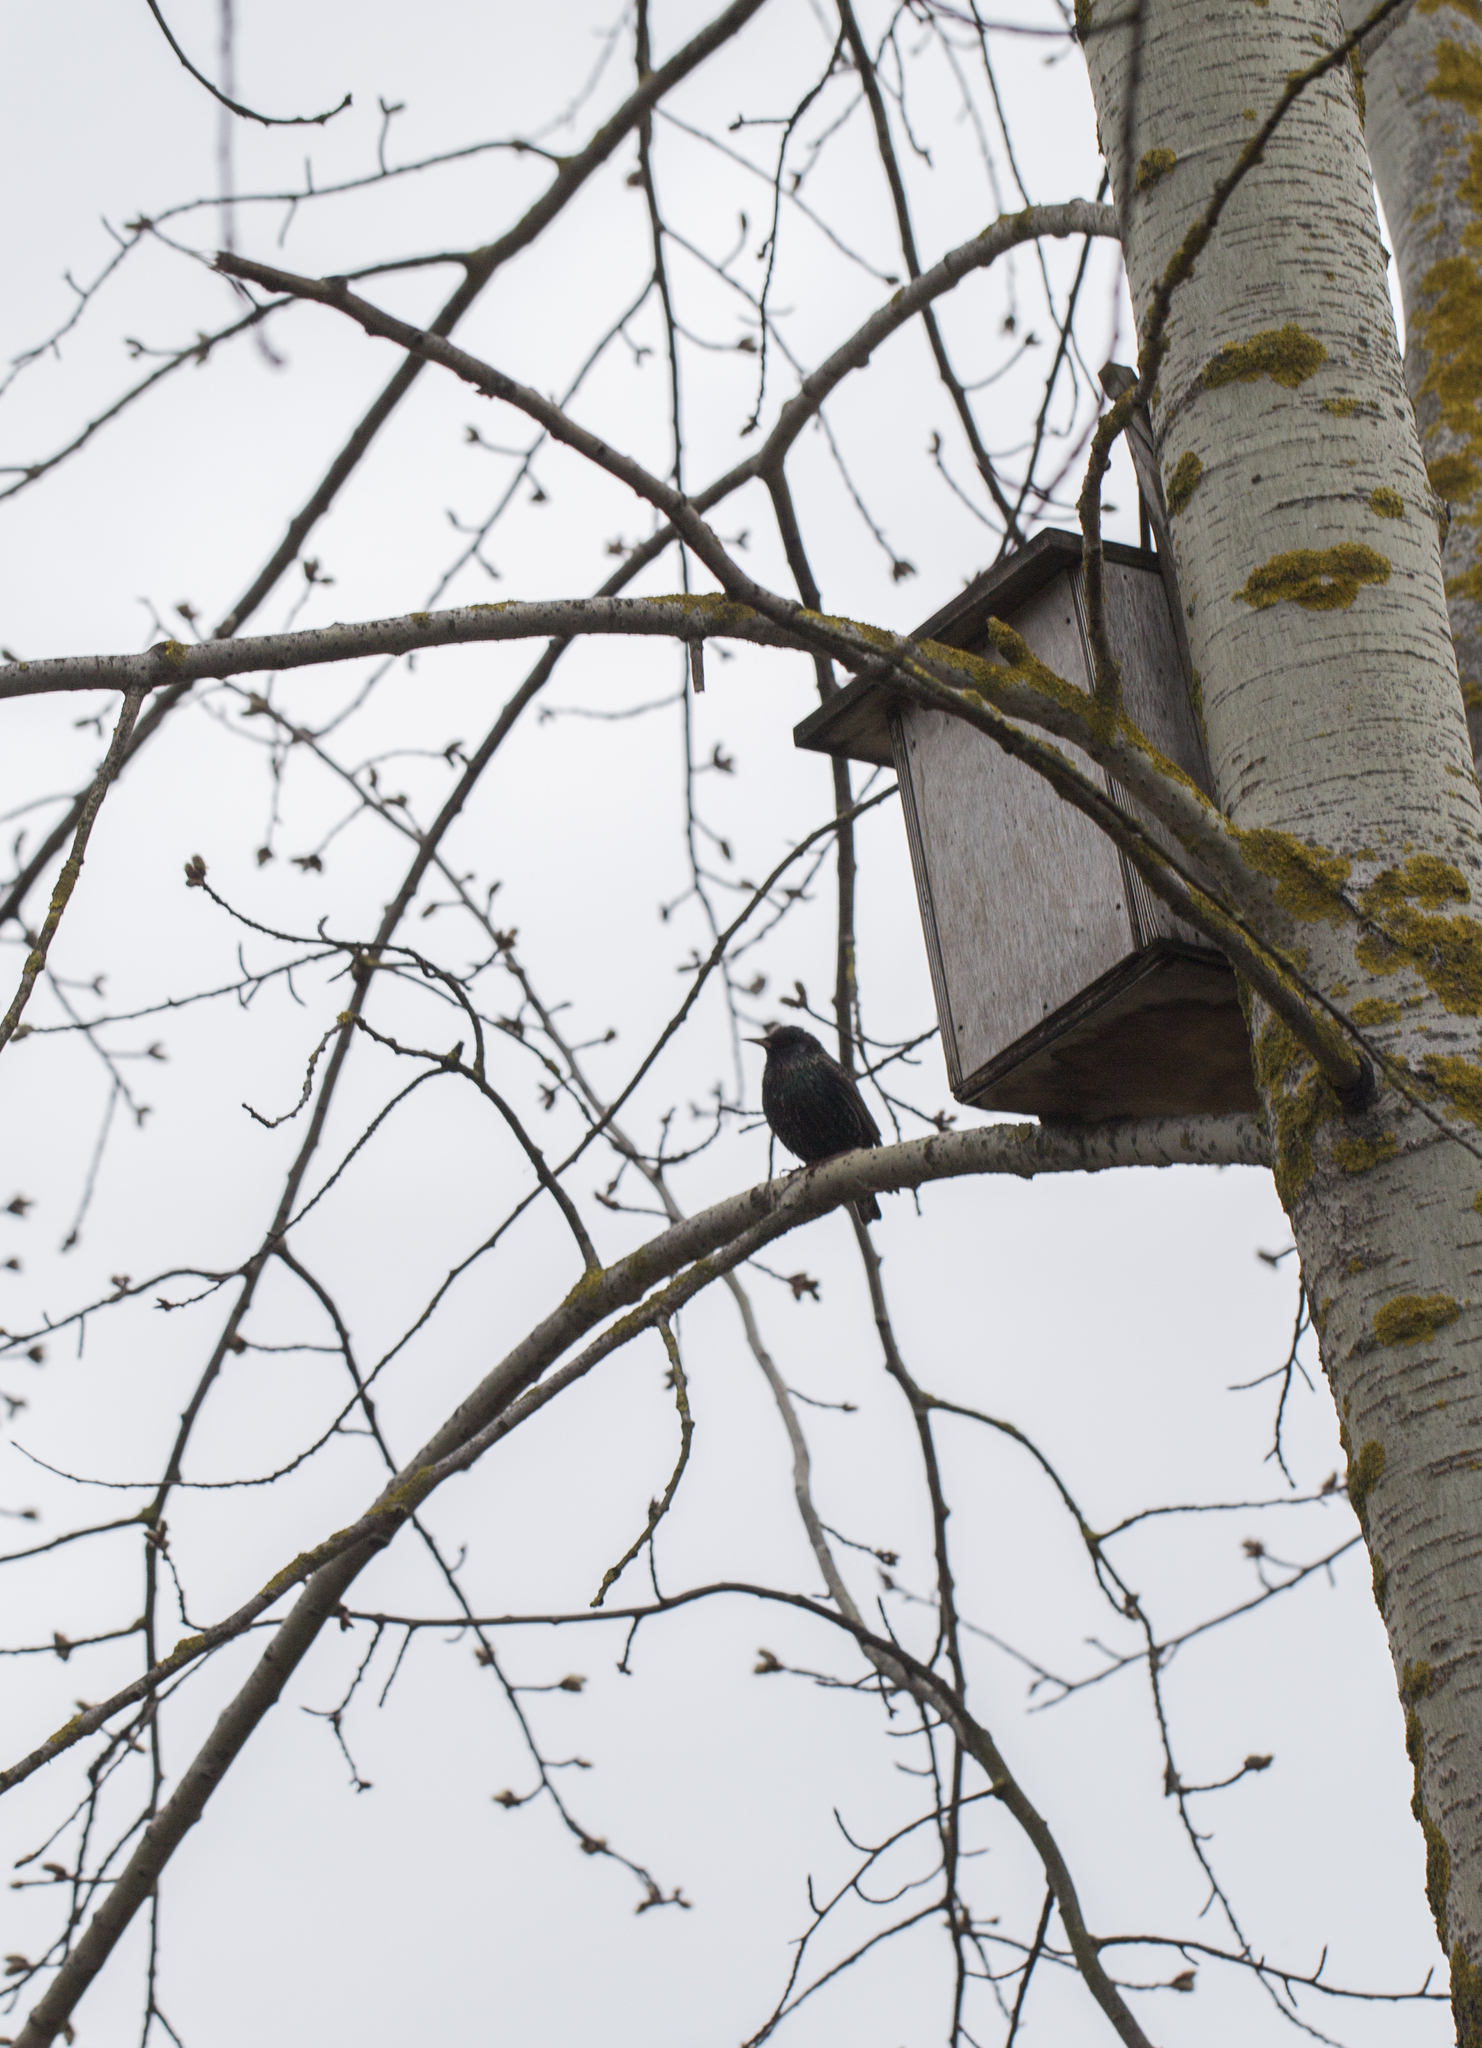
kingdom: Animalia
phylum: Chordata
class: Aves
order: Passeriformes
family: Sturnidae
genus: Sturnus
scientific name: Sturnus vulgaris
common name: Common starling
